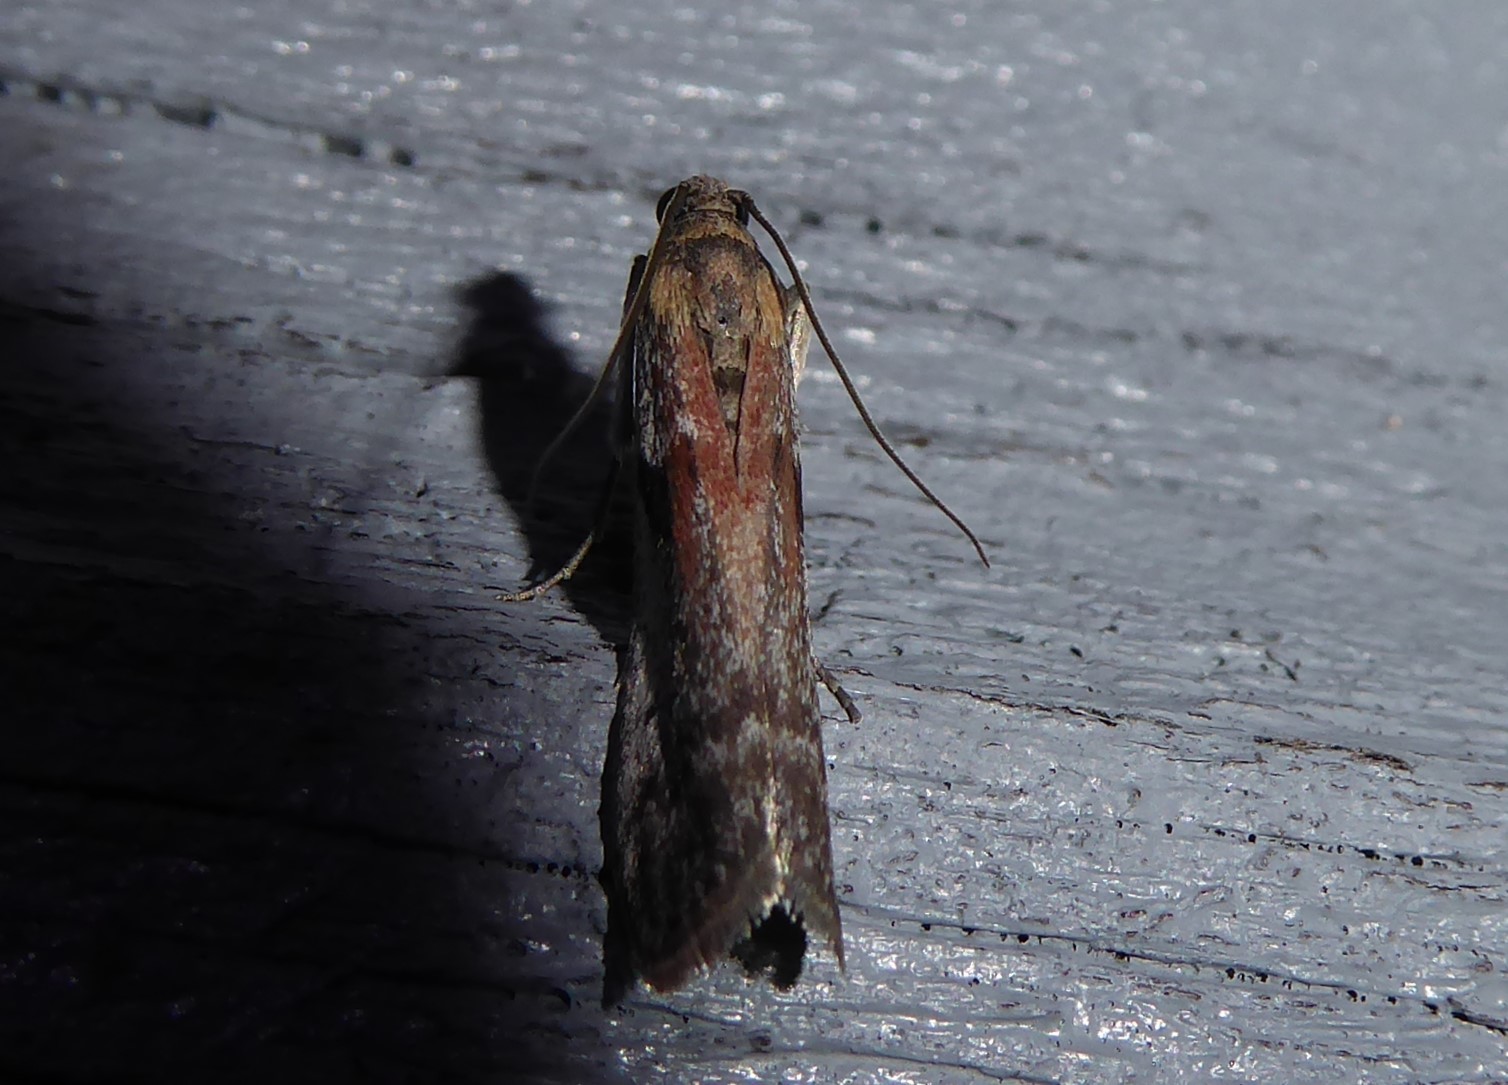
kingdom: Animalia
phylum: Arthropoda
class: Insecta
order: Lepidoptera
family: Pyralidae
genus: Patagoniodes
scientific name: Patagoniodes farinaria
